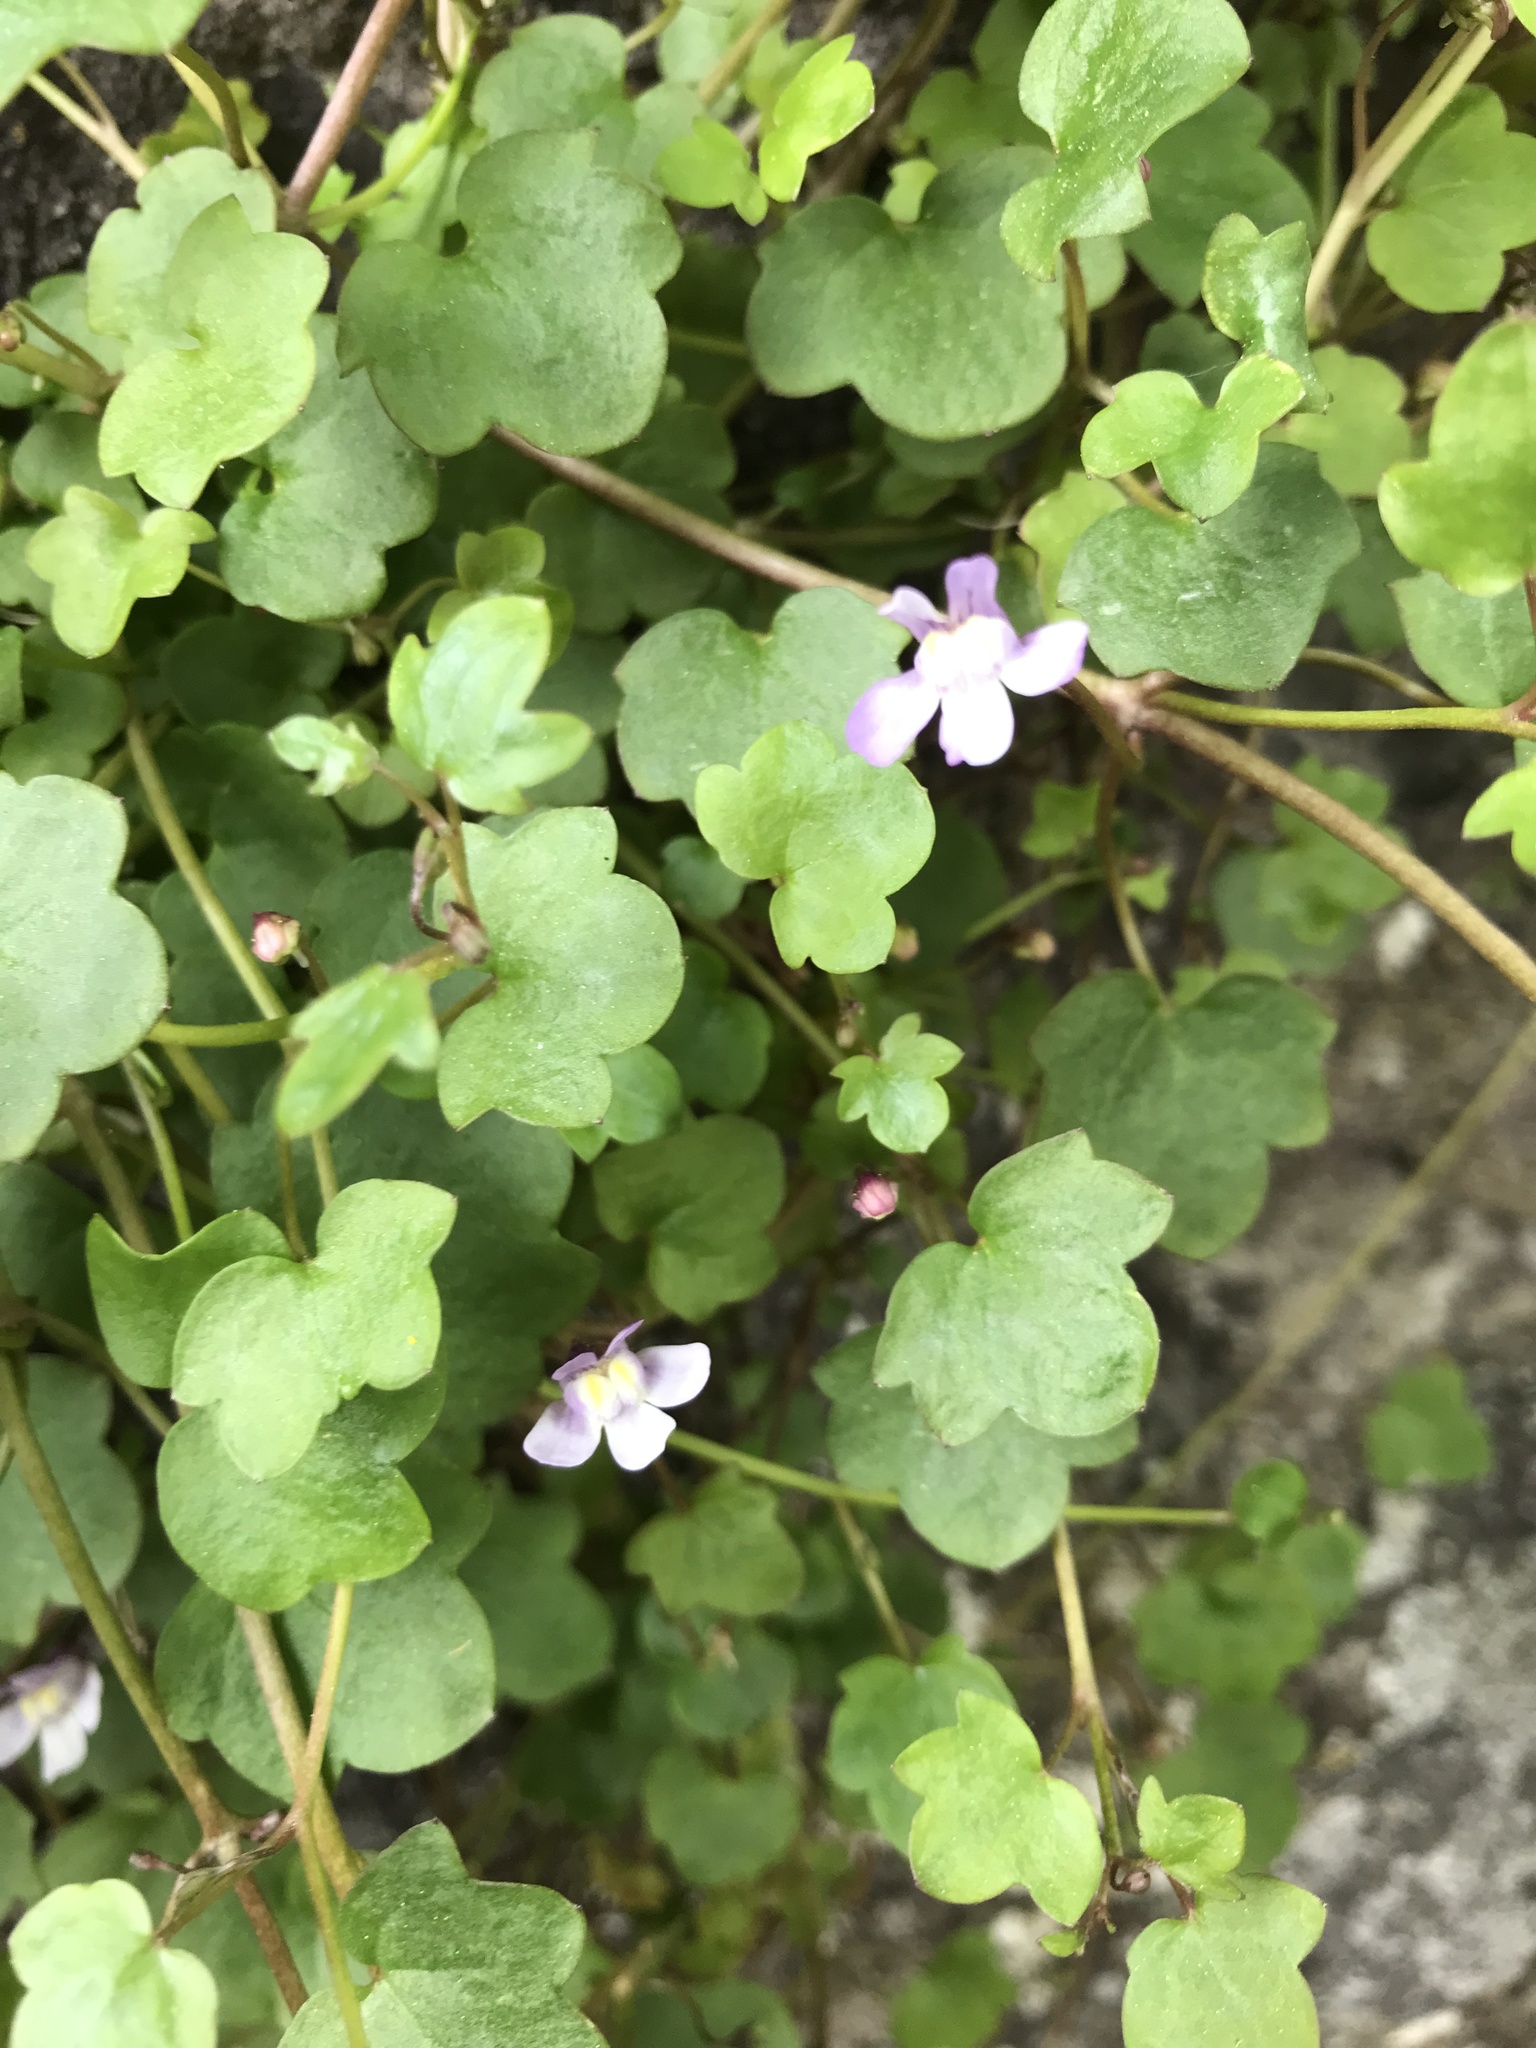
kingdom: Plantae
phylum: Tracheophyta
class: Magnoliopsida
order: Lamiales
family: Plantaginaceae
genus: Cymbalaria
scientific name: Cymbalaria muralis
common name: Ivy-leaved toadflax
